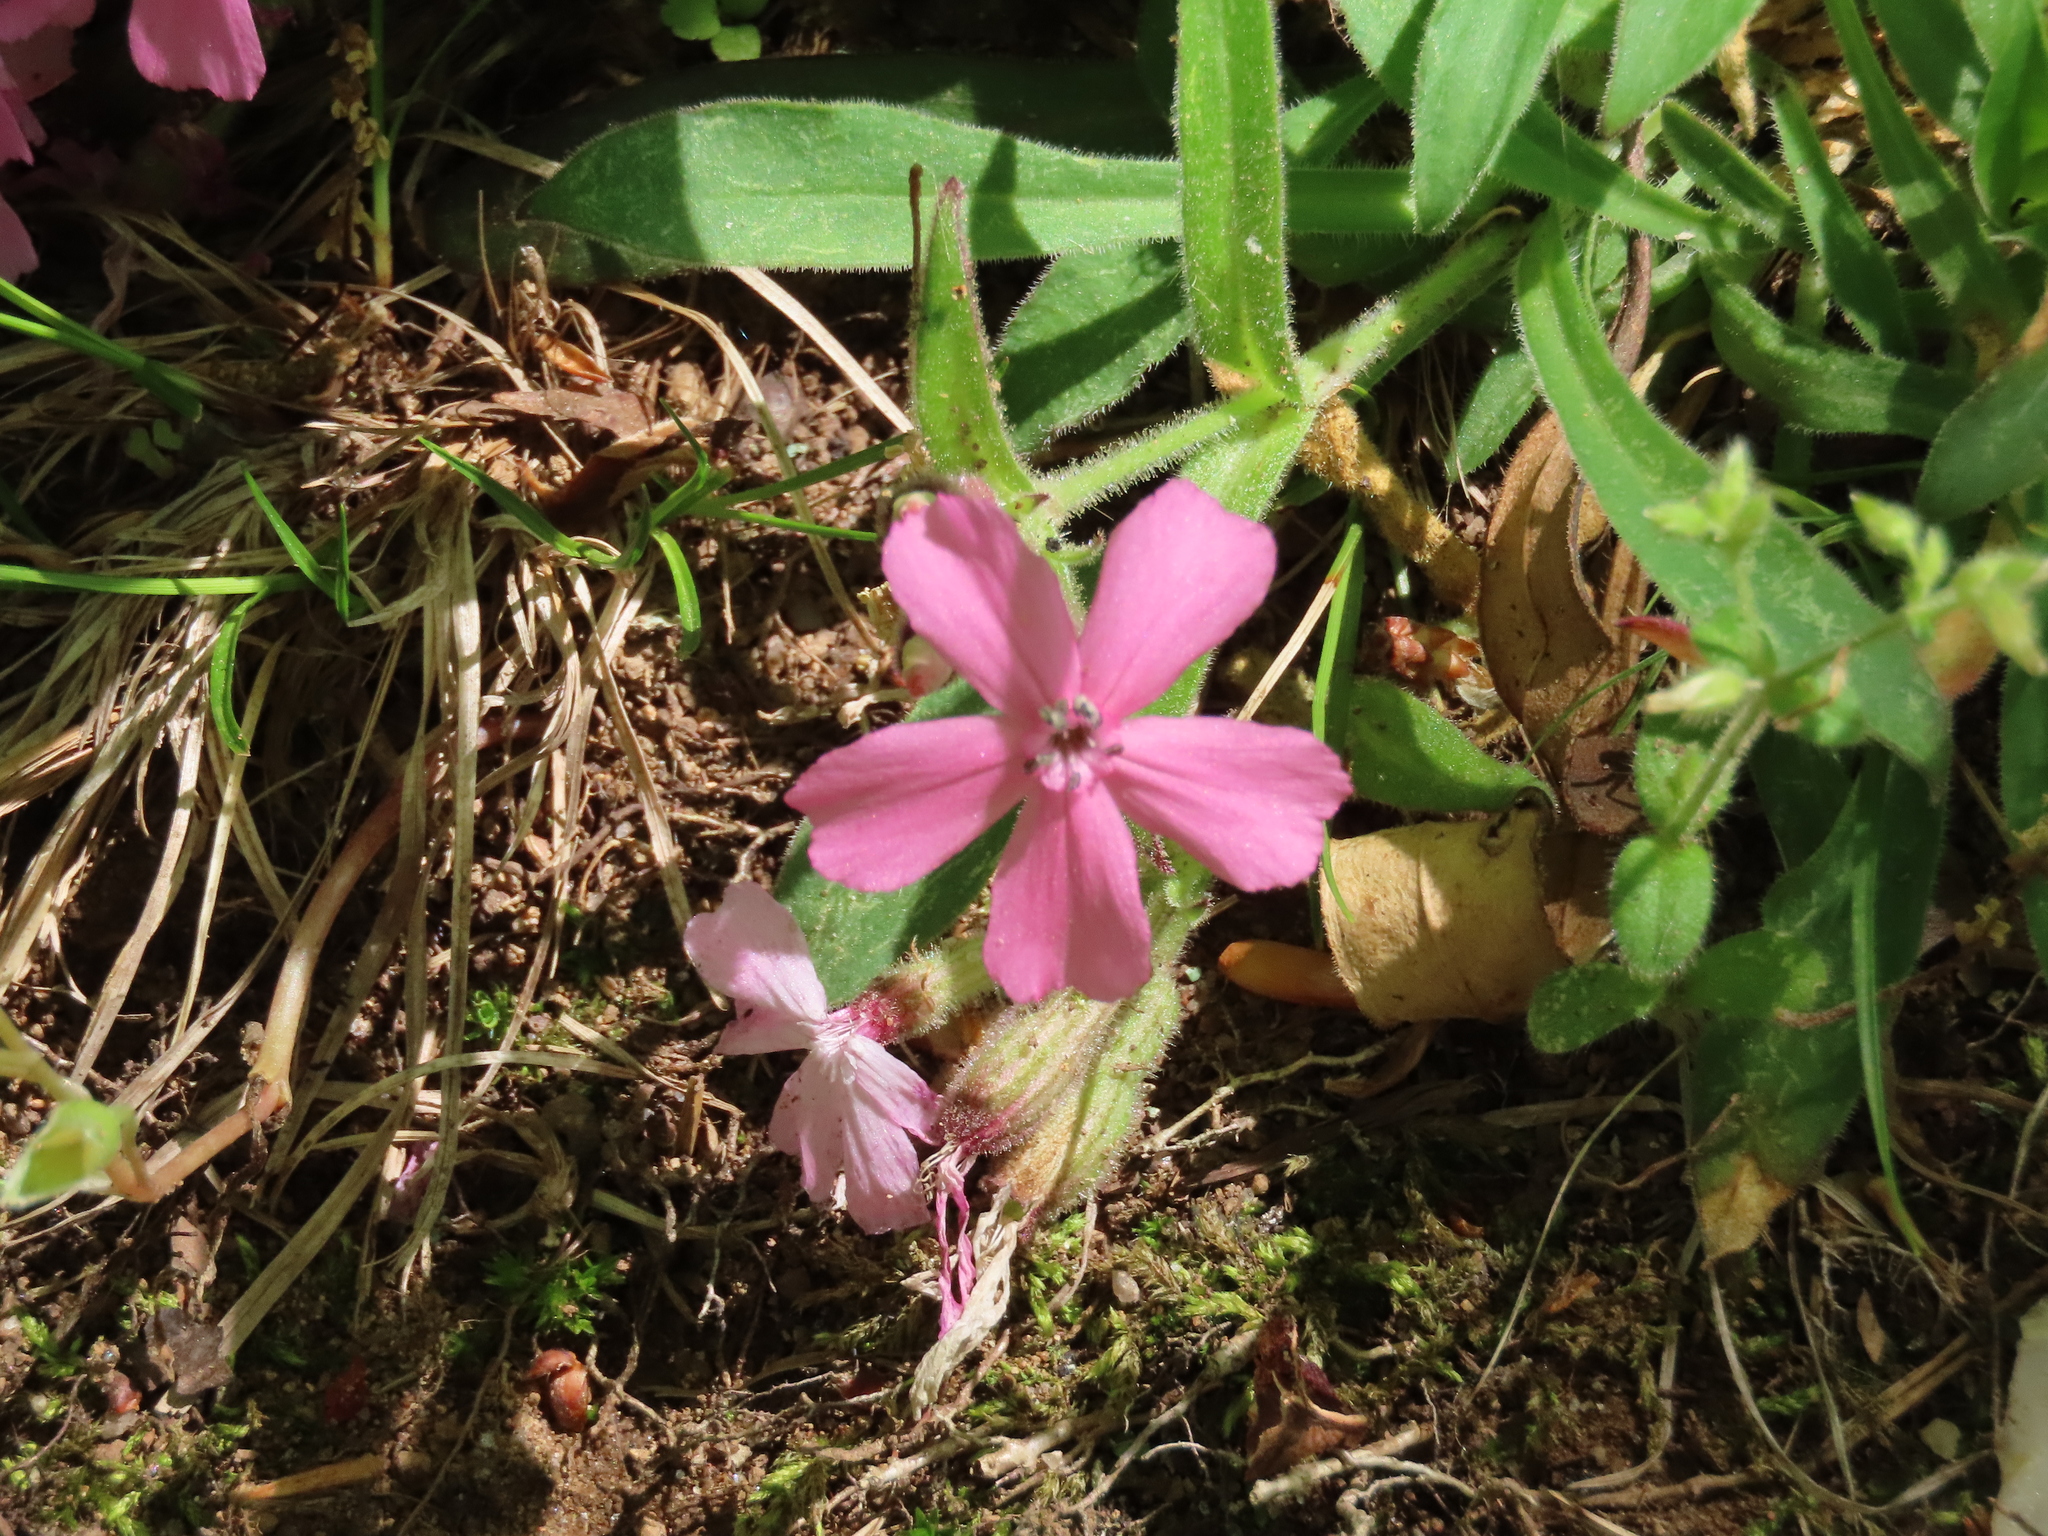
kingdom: Plantae
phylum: Tracheophyta
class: Magnoliopsida
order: Caryophyllales
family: Caryophyllaceae
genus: Silene
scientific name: Silene caroliniana
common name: Sticky catchfly
